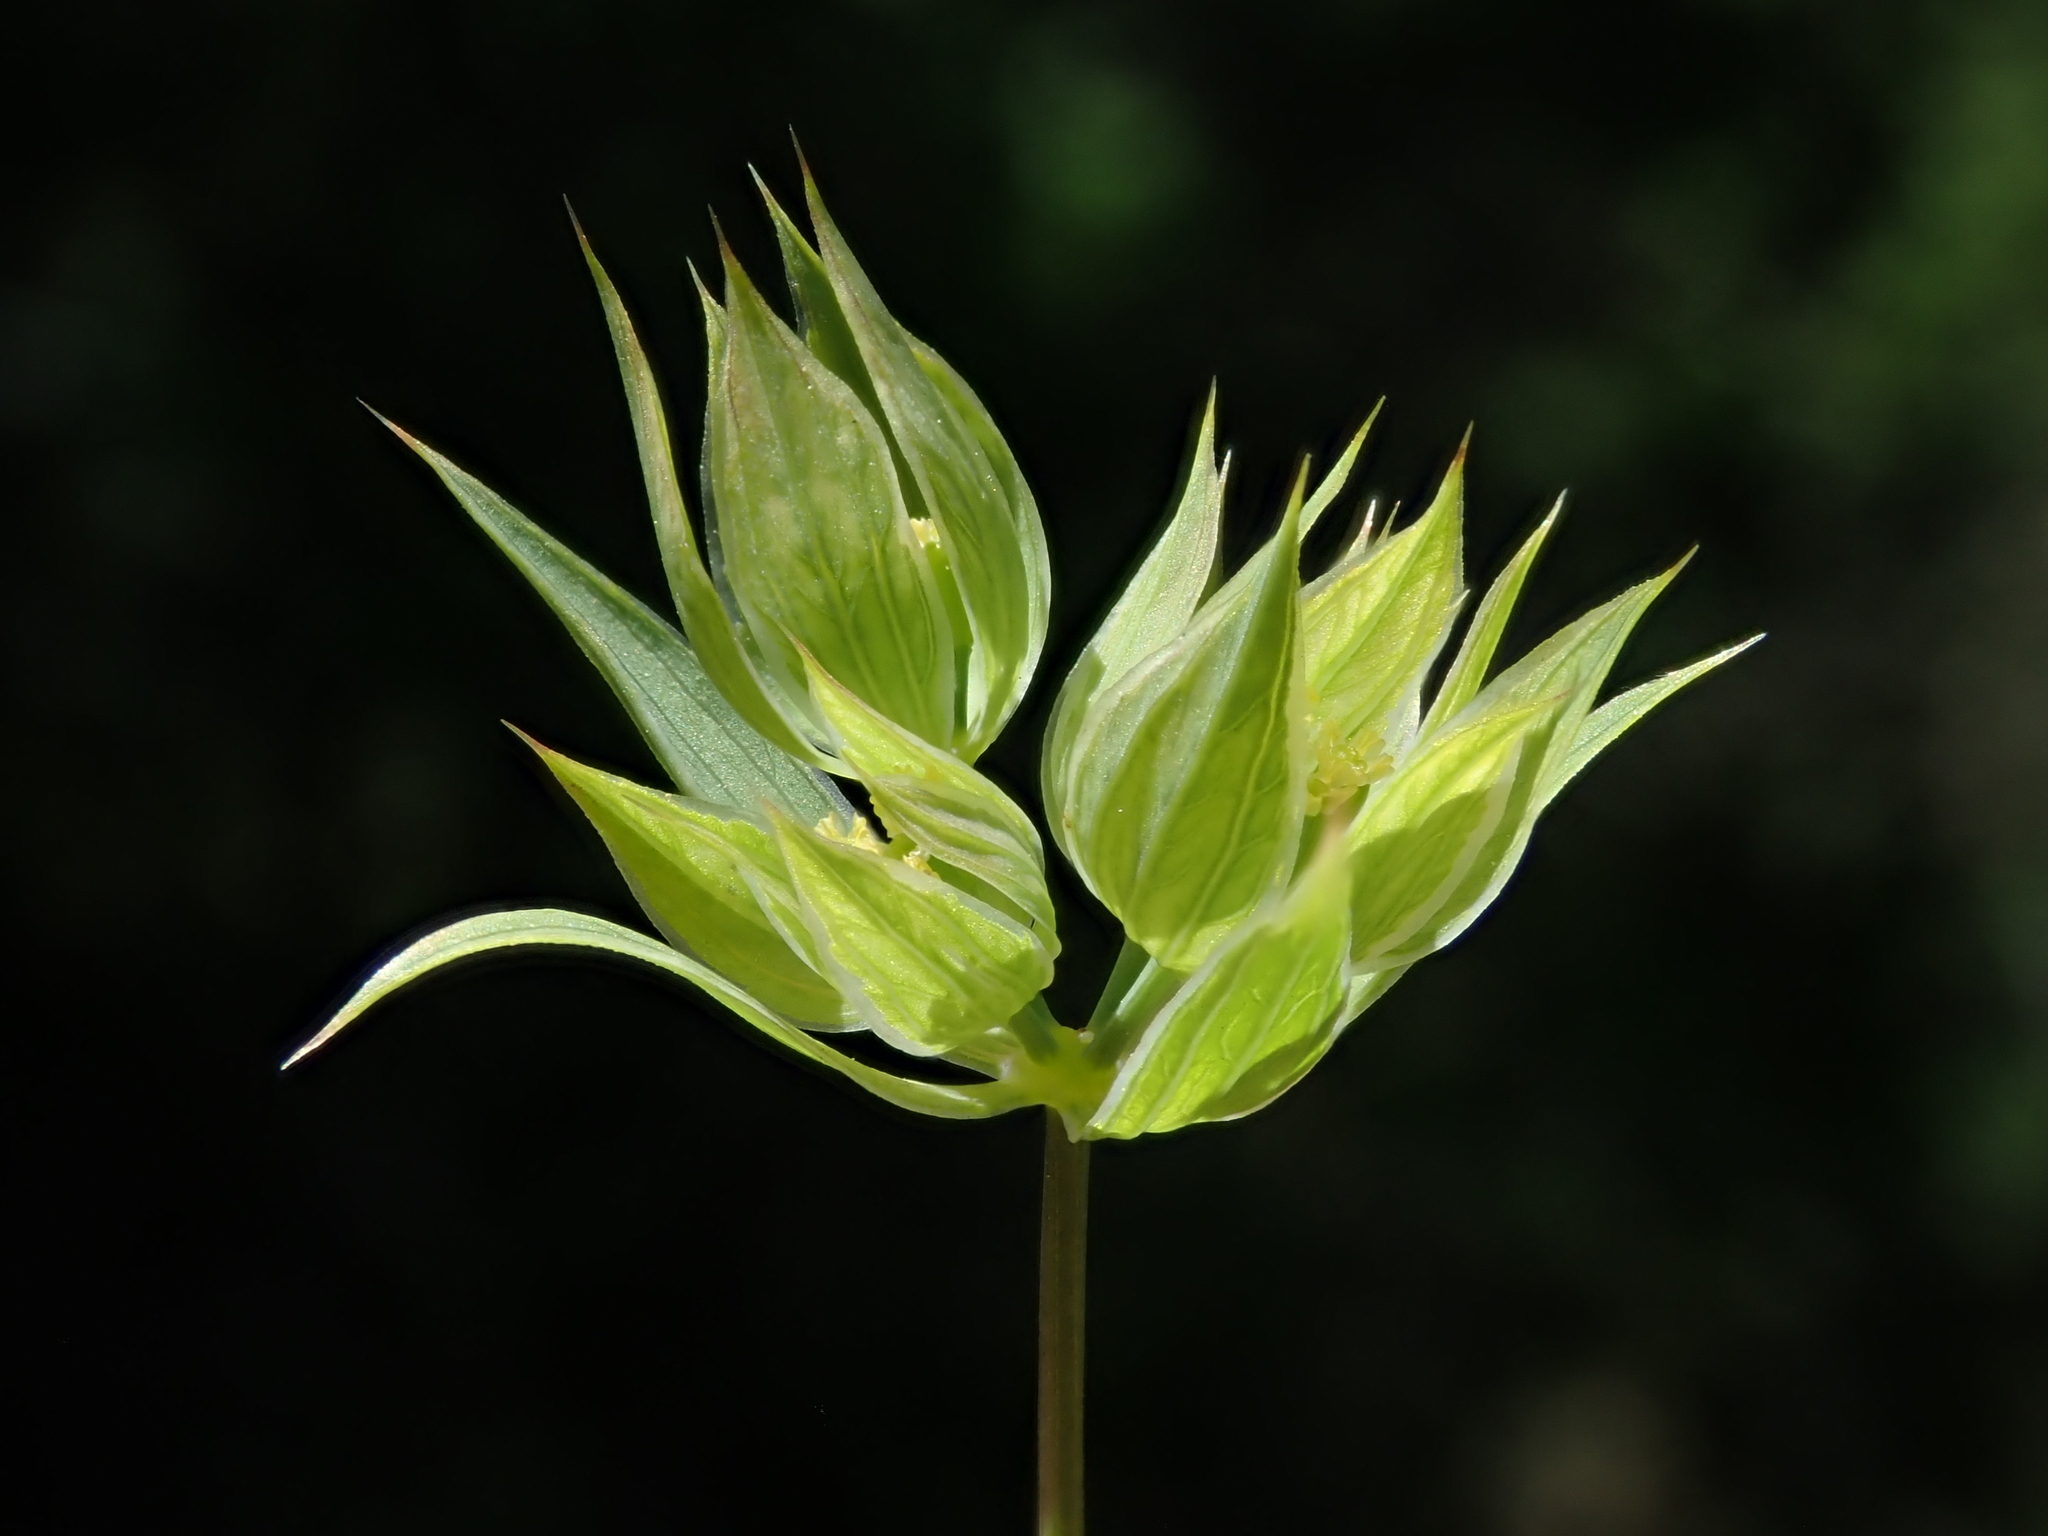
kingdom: Plantae
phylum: Tracheophyta
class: Magnoliopsida
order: Apiales
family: Apiaceae
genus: Bupleurum
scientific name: Bupleurum baldense
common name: Small hare's-ear
